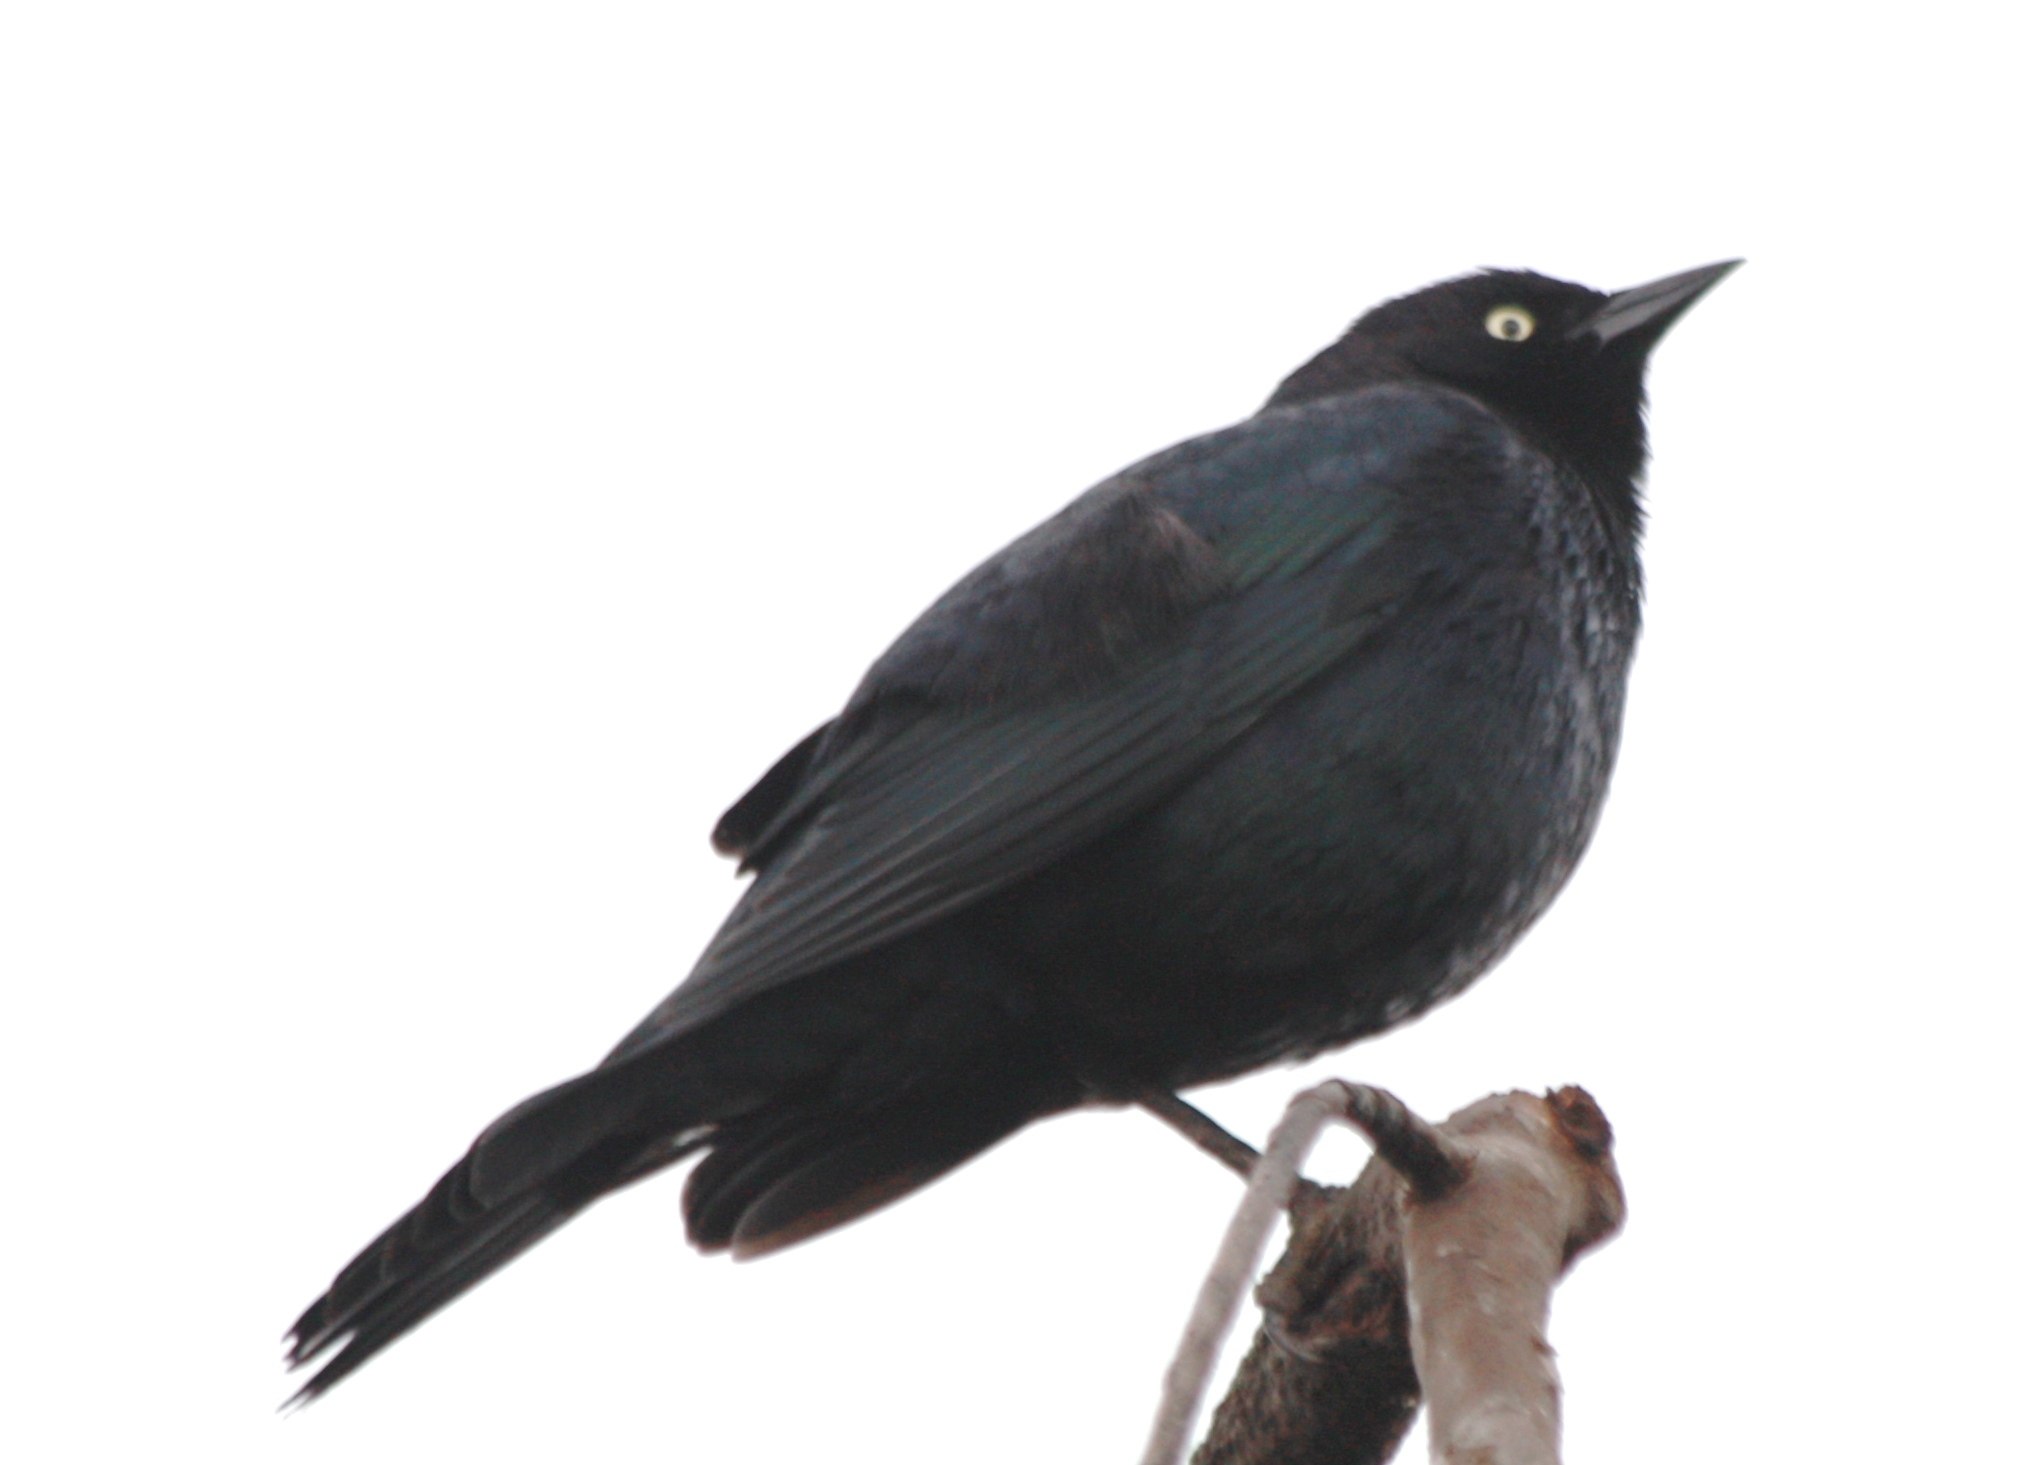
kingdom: Animalia
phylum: Chordata
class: Aves
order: Passeriformes
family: Icteridae
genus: Euphagus
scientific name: Euphagus cyanocephalus
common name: Brewer's blackbird
